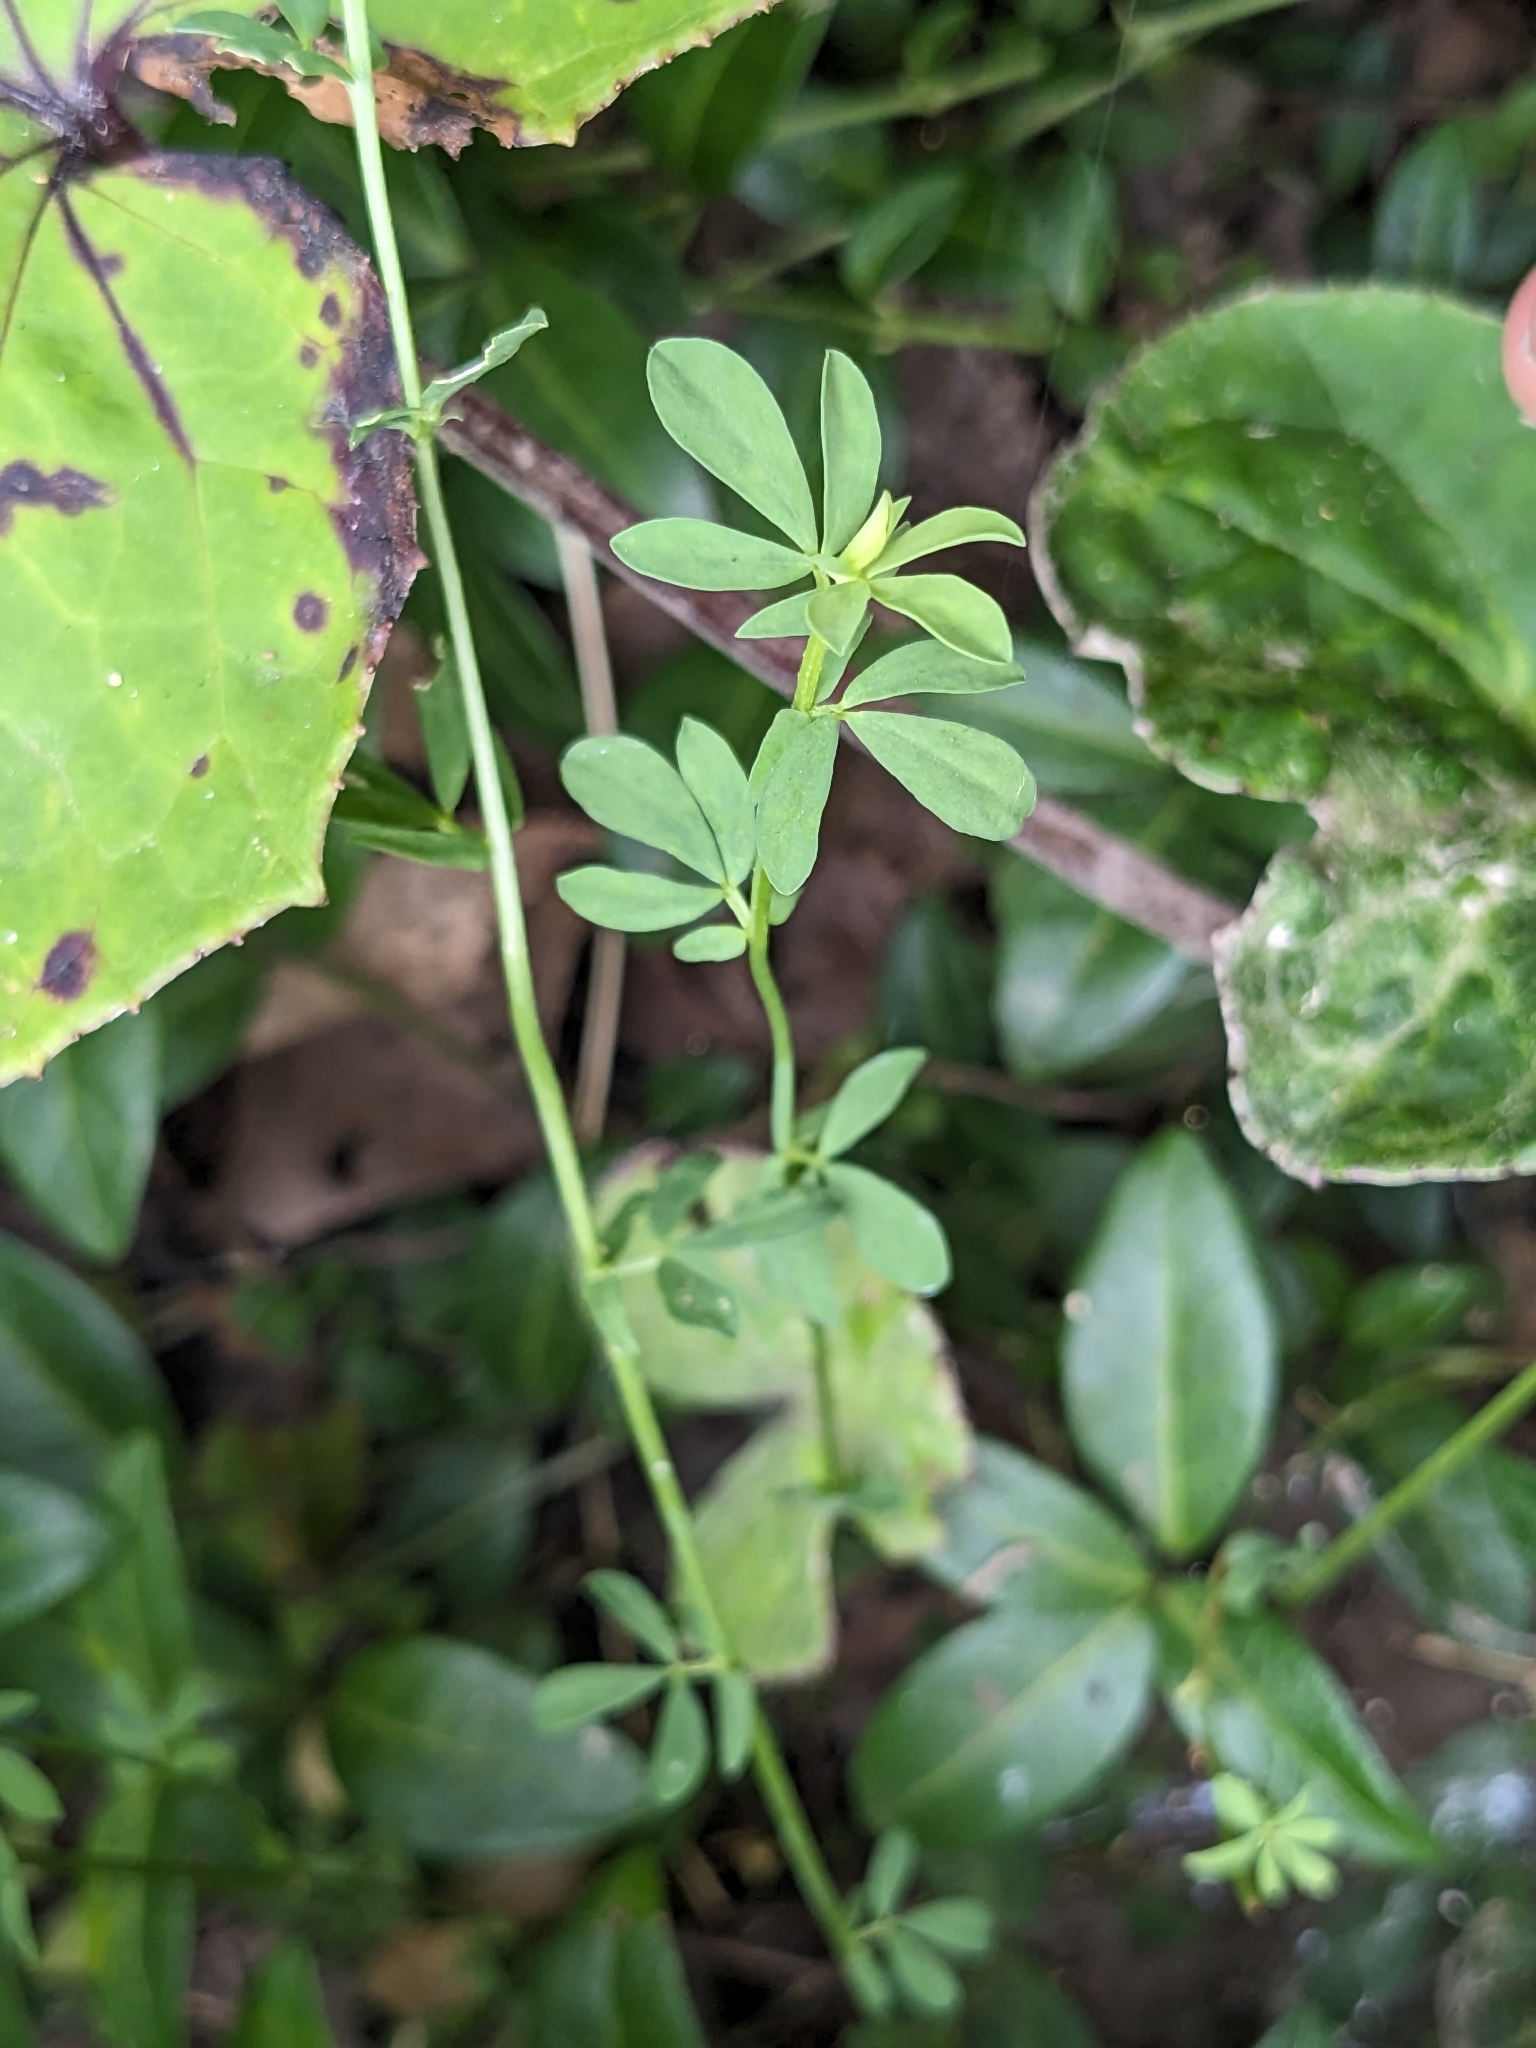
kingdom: Plantae
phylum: Tracheophyta
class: Magnoliopsida
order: Fabales
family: Fabaceae
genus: Lotus
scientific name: Lotus corniculatus
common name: Common bird's-foot-trefoil
